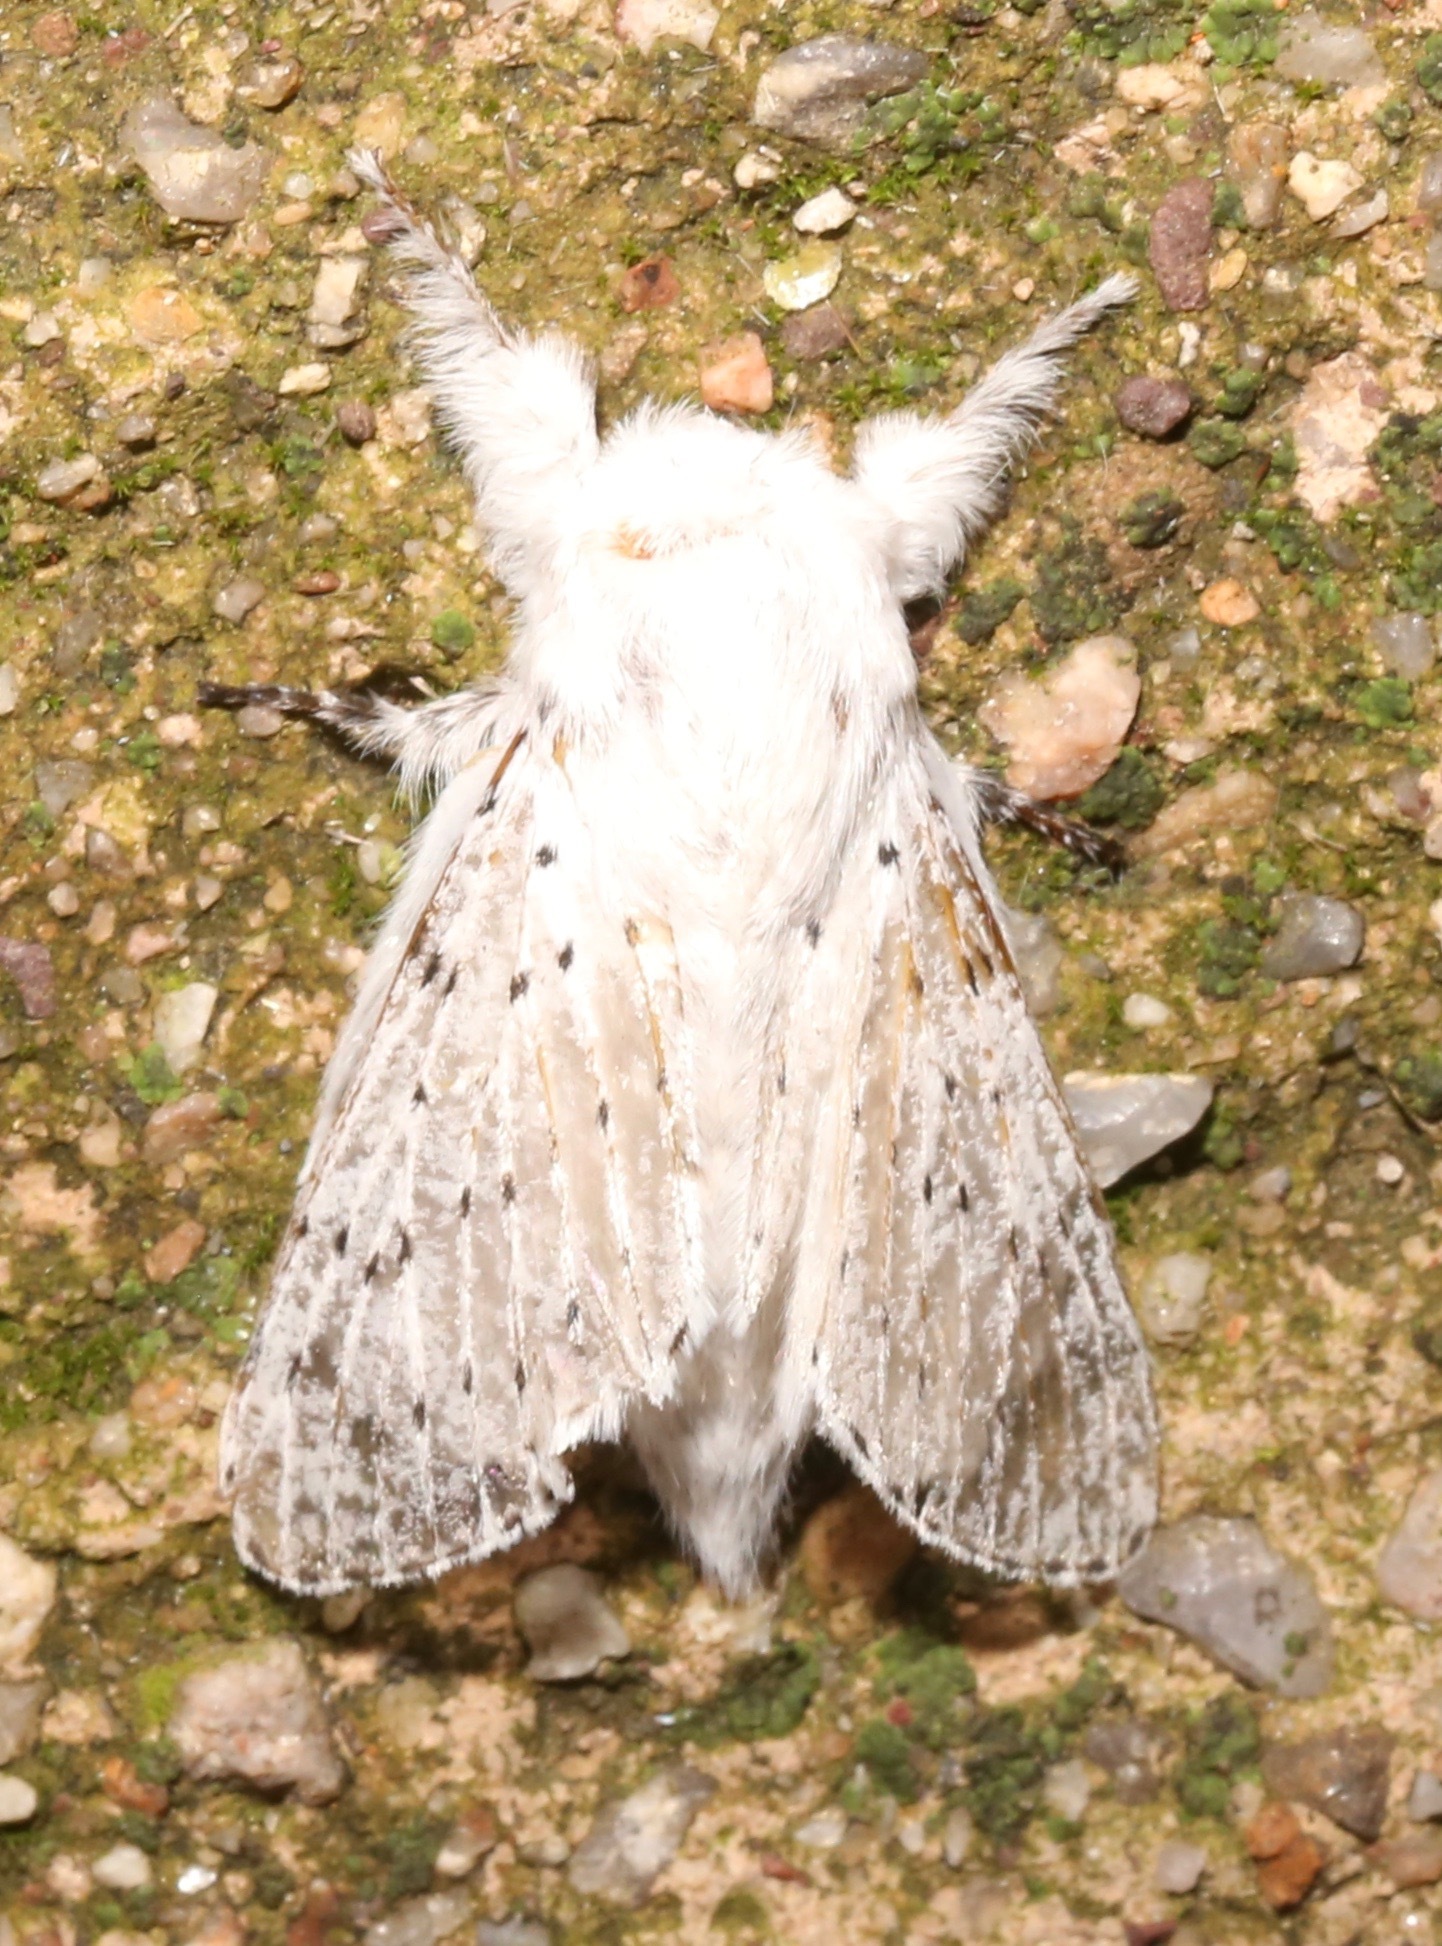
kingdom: Animalia
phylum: Arthropoda
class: Insecta
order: Lepidoptera
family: Lasiocampidae
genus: Artace
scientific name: Artace colaria
